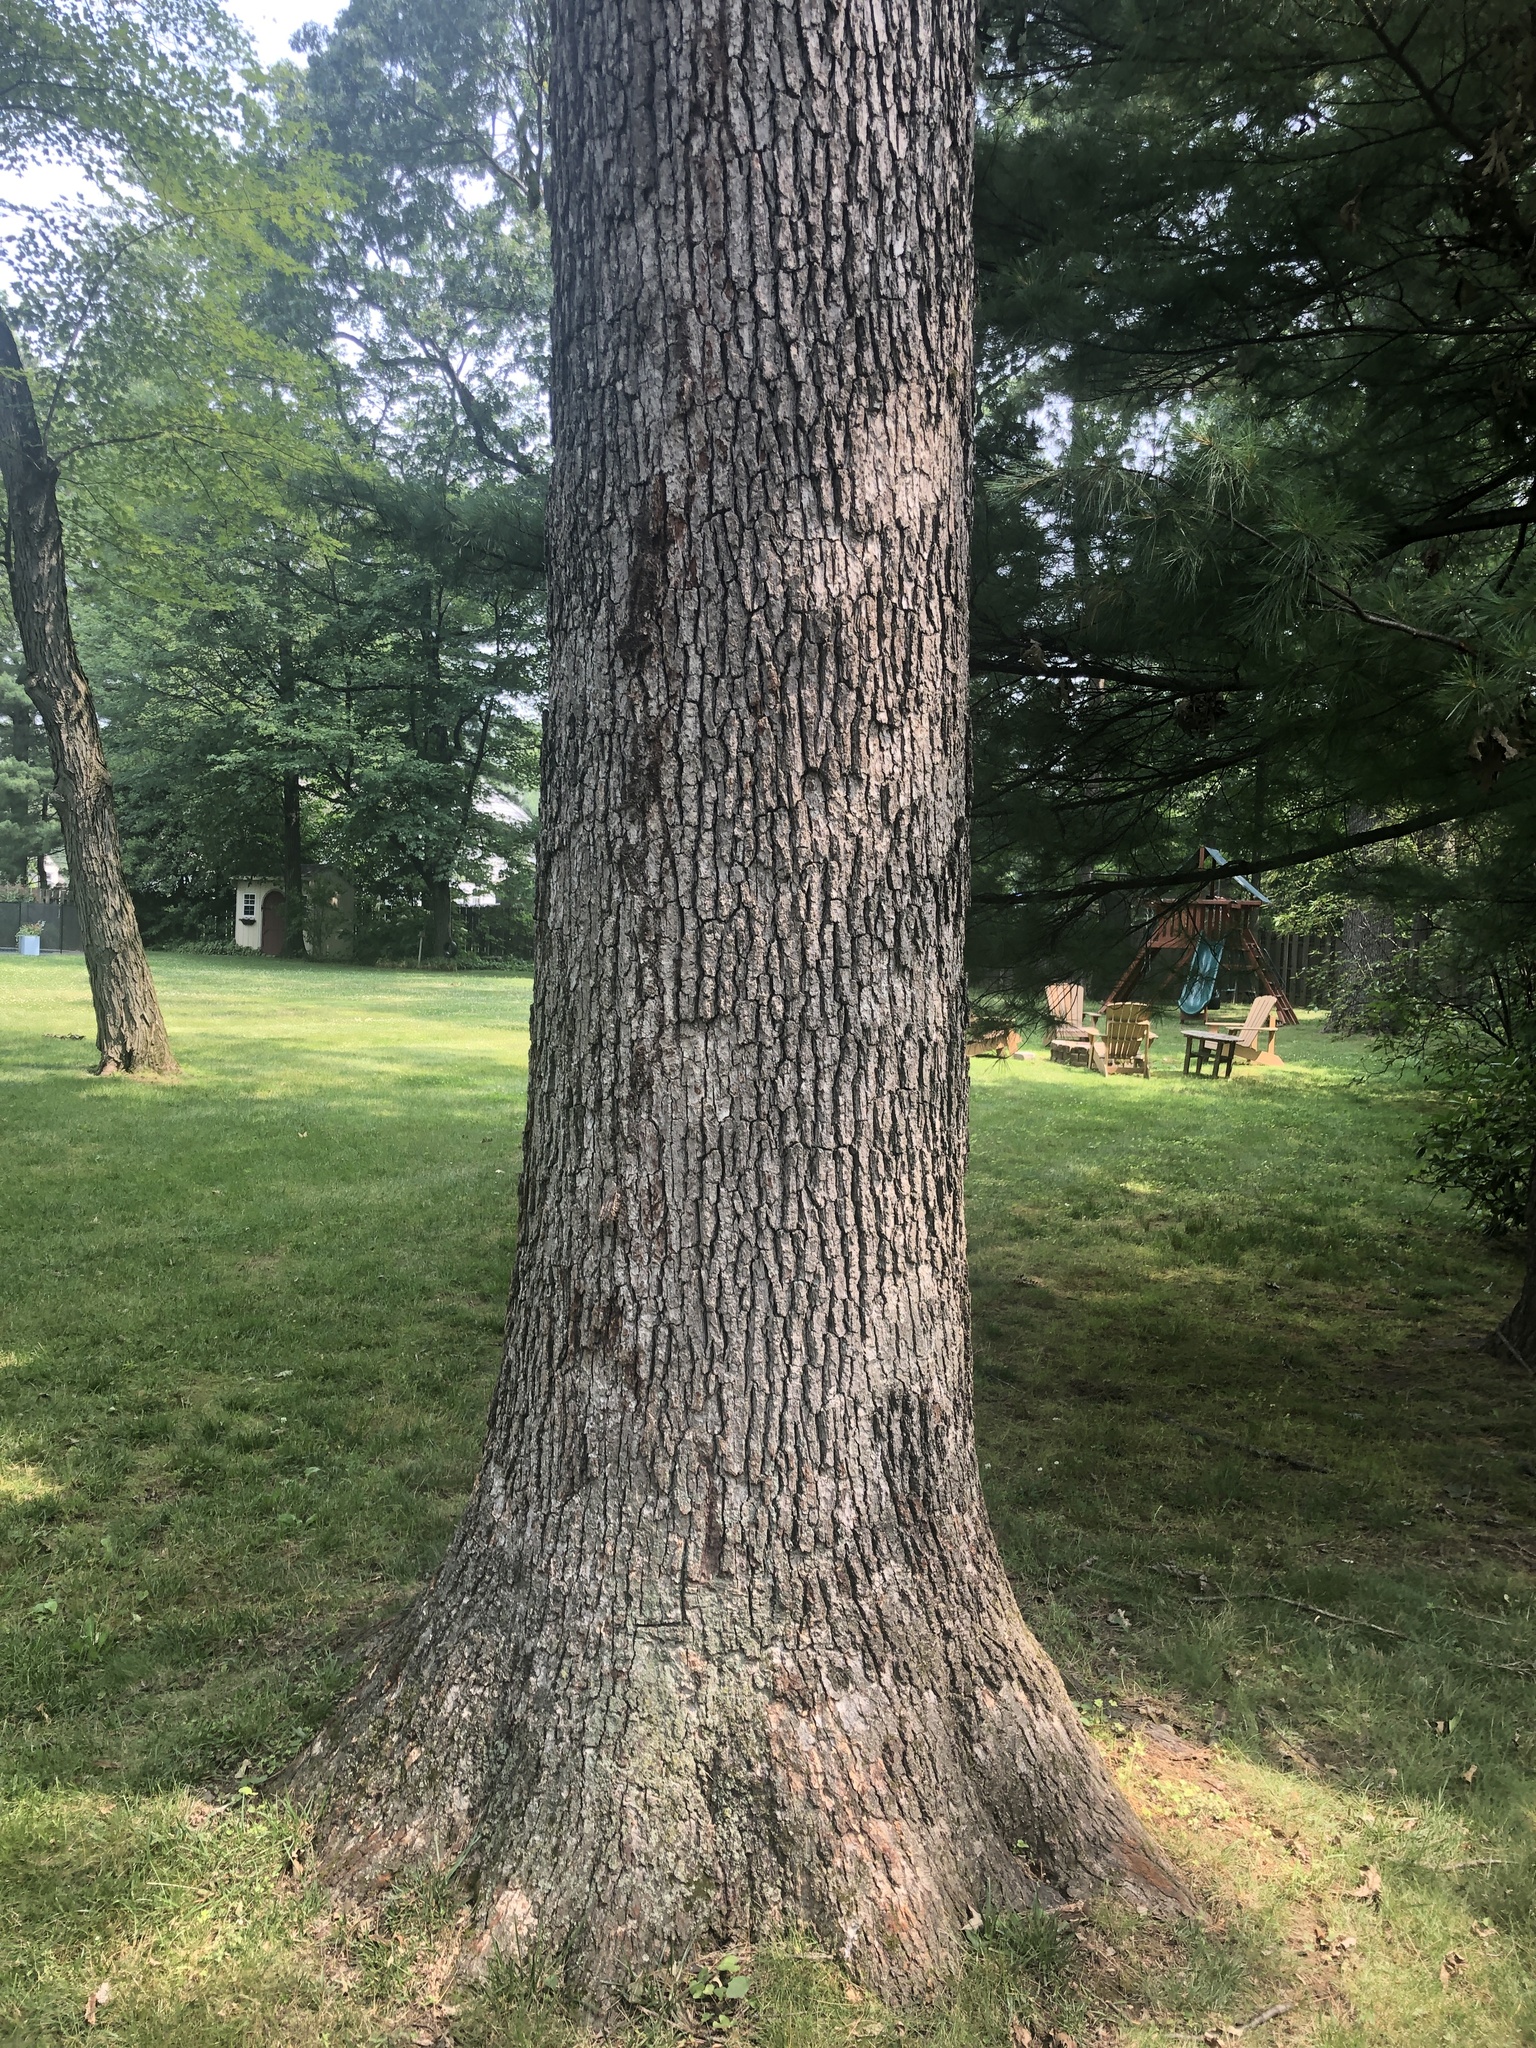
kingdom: Plantae
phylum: Tracheophyta
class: Magnoliopsida
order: Fagales
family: Fagaceae
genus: Quercus
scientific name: Quercus alba
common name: White oak
